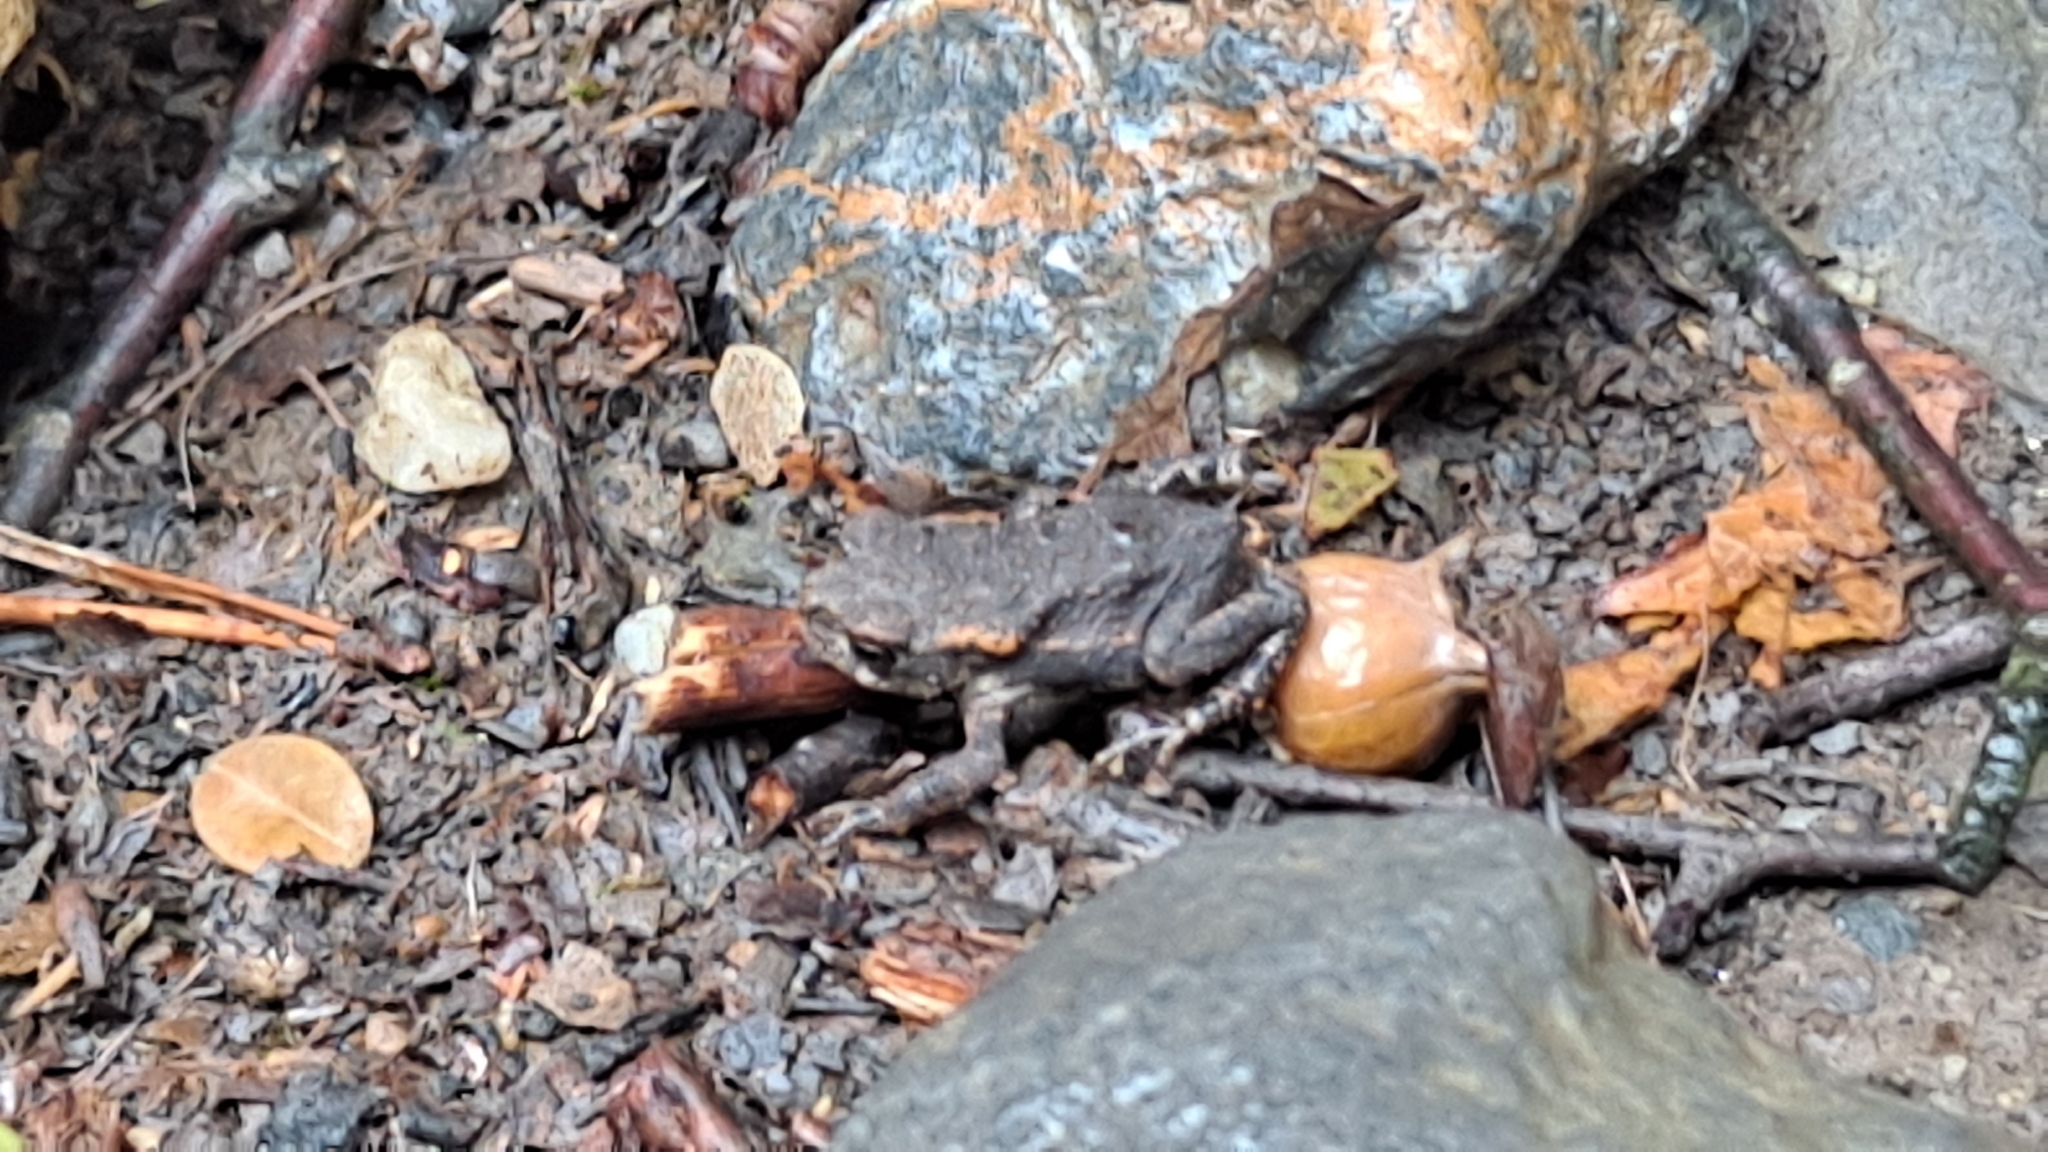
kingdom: Animalia
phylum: Chordata
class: Amphibia
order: Anura
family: Bufonidae
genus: Bufo
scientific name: Bufo spinosus
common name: Western common toad
